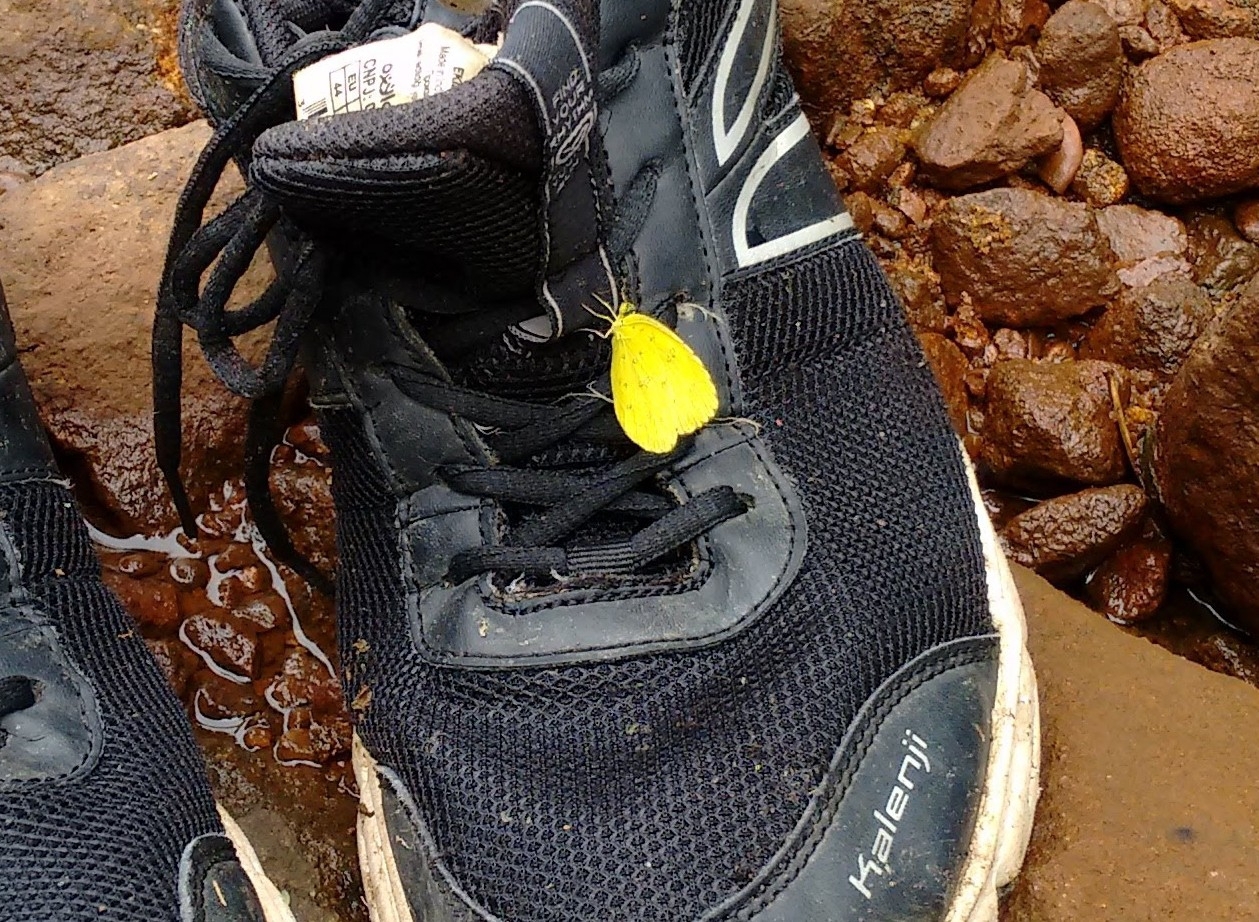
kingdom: Animalia
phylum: Arthropoda
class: Insecta
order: Lepidoptera
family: Pieridae
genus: Eurema
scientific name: Eurema blanda
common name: Three-spot grass yellow
